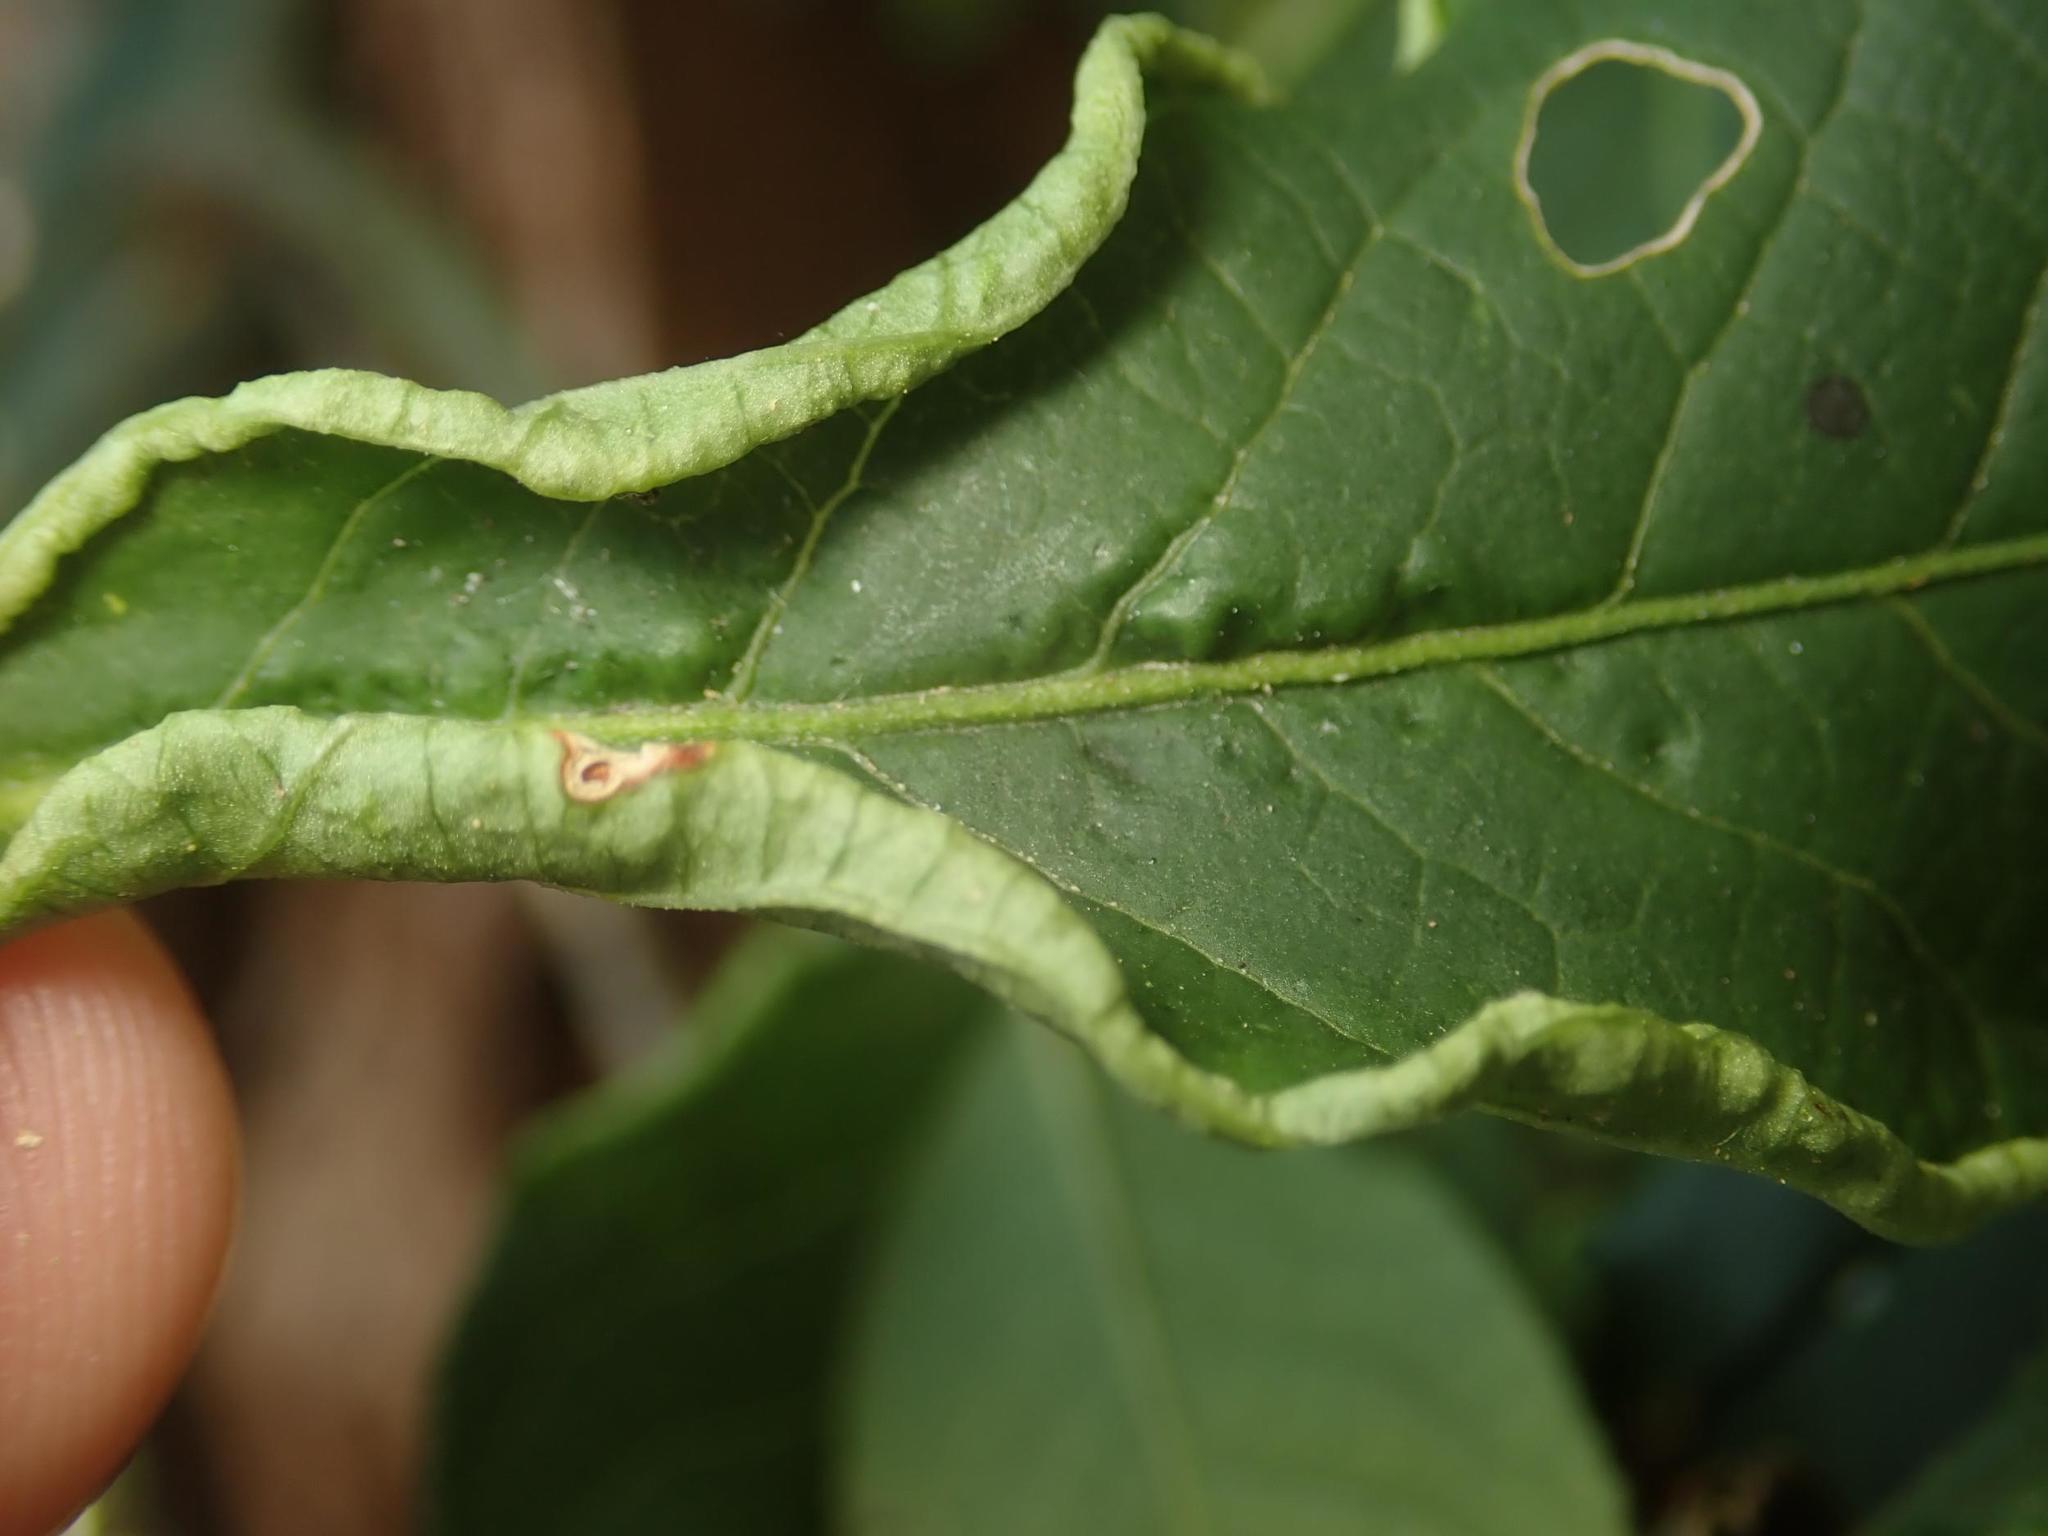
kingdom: Animalia
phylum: Arthropoda
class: Arachnida
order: Trombidiformes
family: Eriophyidae
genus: Stenacis
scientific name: Stenacis evonymi
